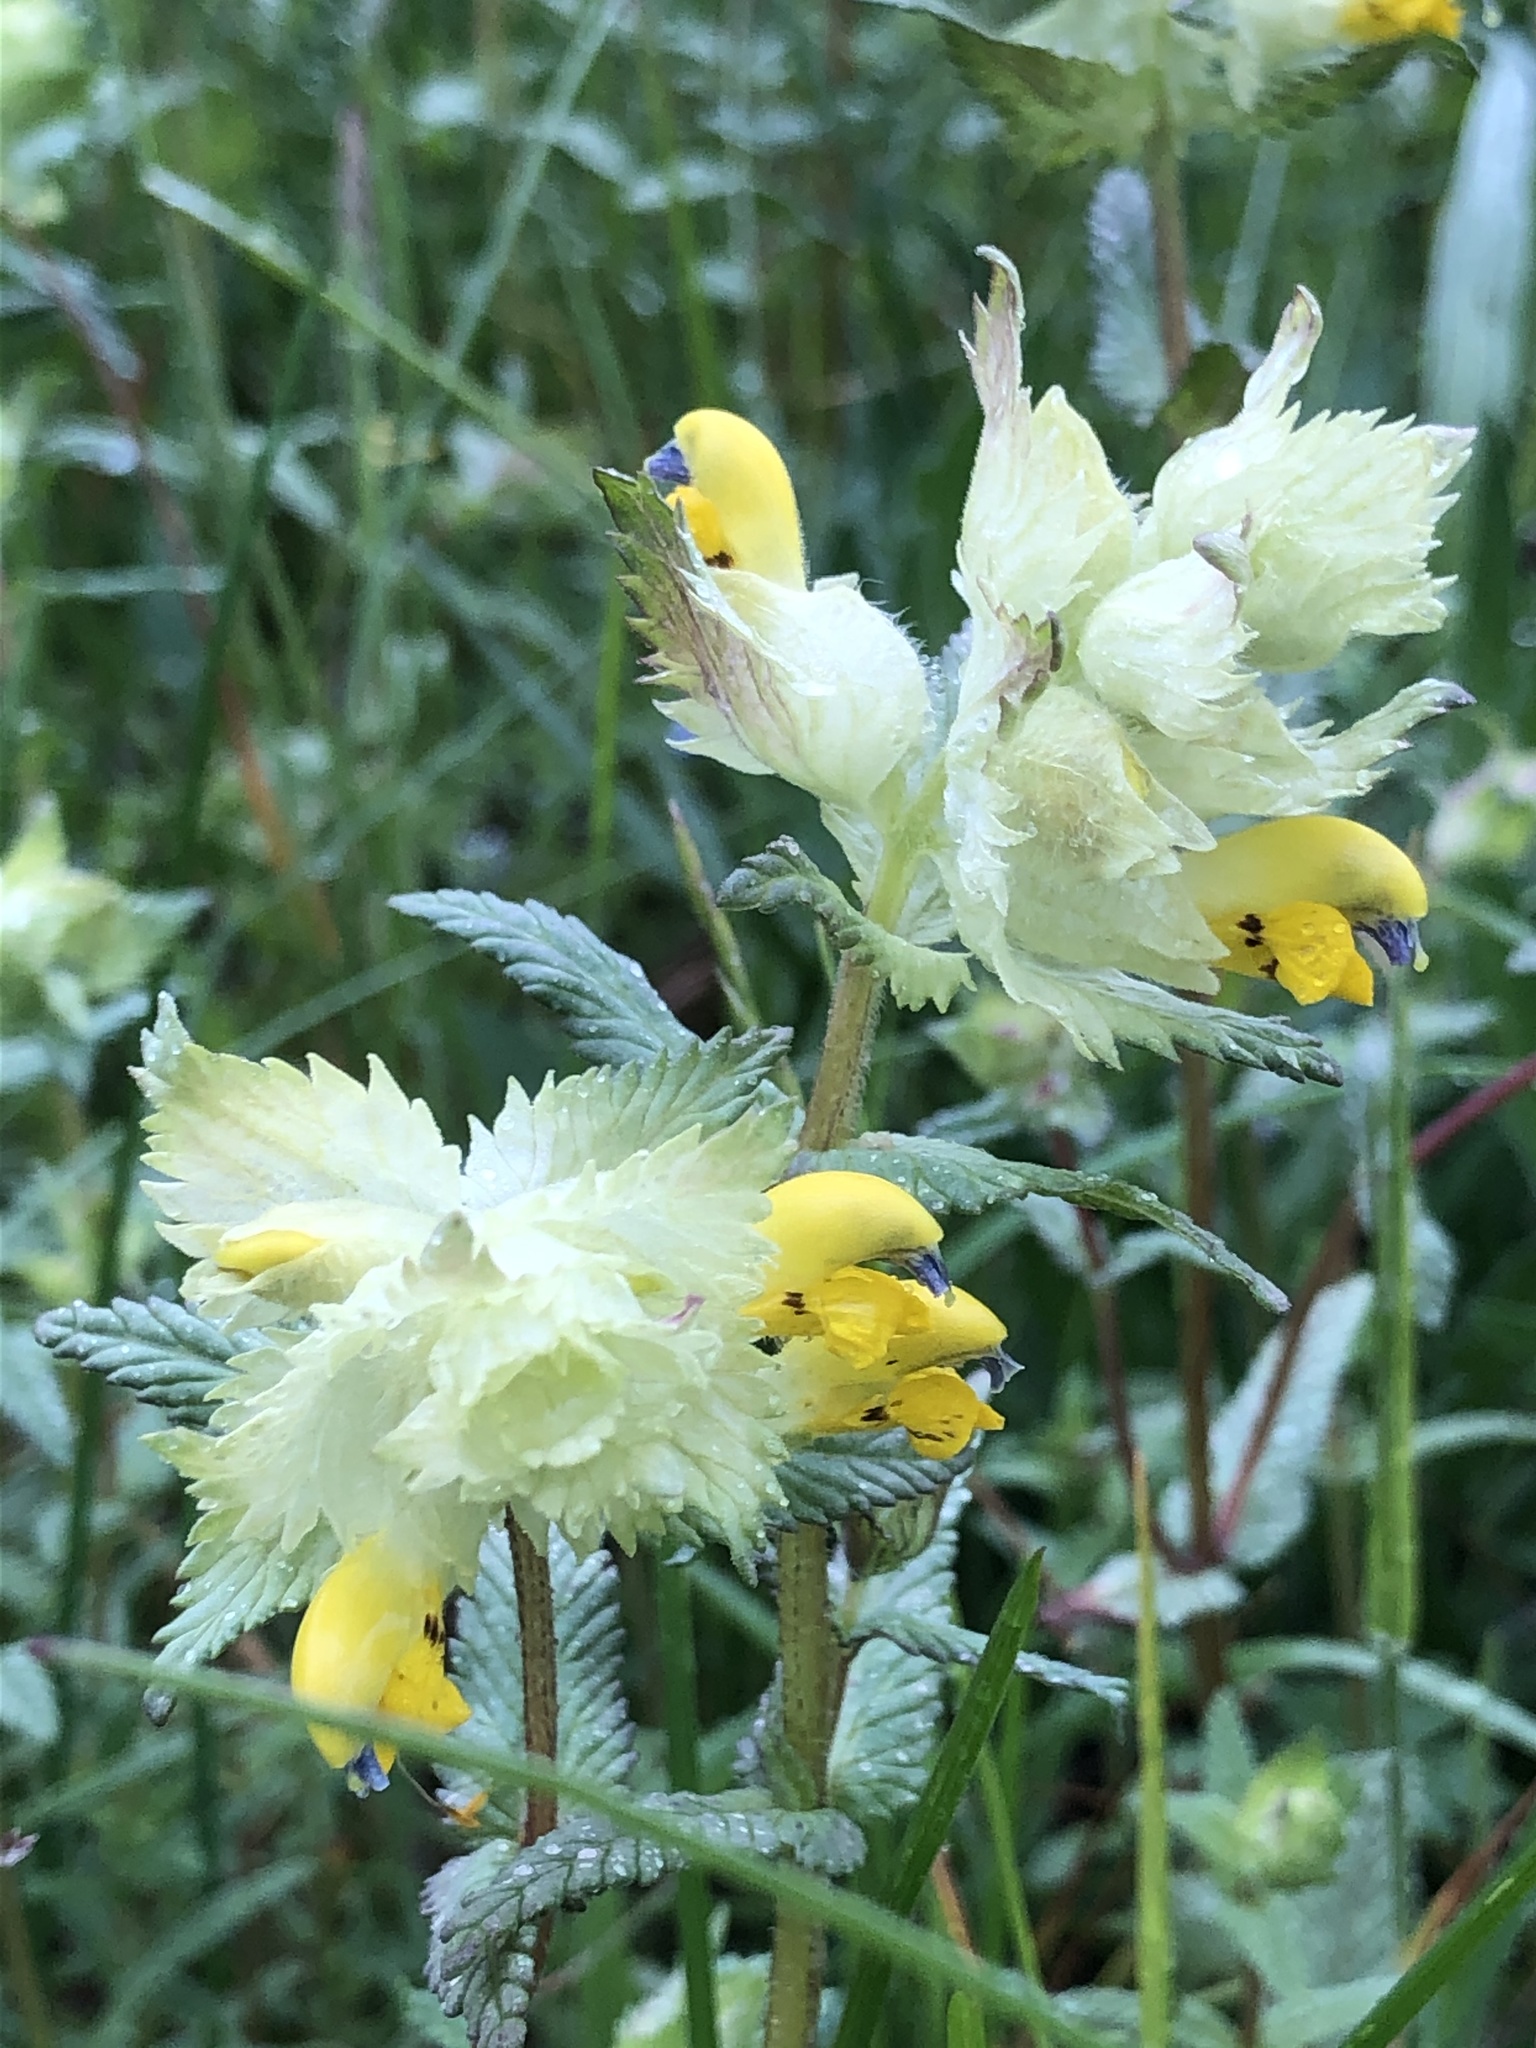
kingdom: Plantae
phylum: Tracheophyta
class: Magnoliopsida
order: Lamiales
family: Orobanchaceae
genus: Rhinanthus
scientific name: Rhinanthus alectorolophus
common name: Greater yellow-rattle
